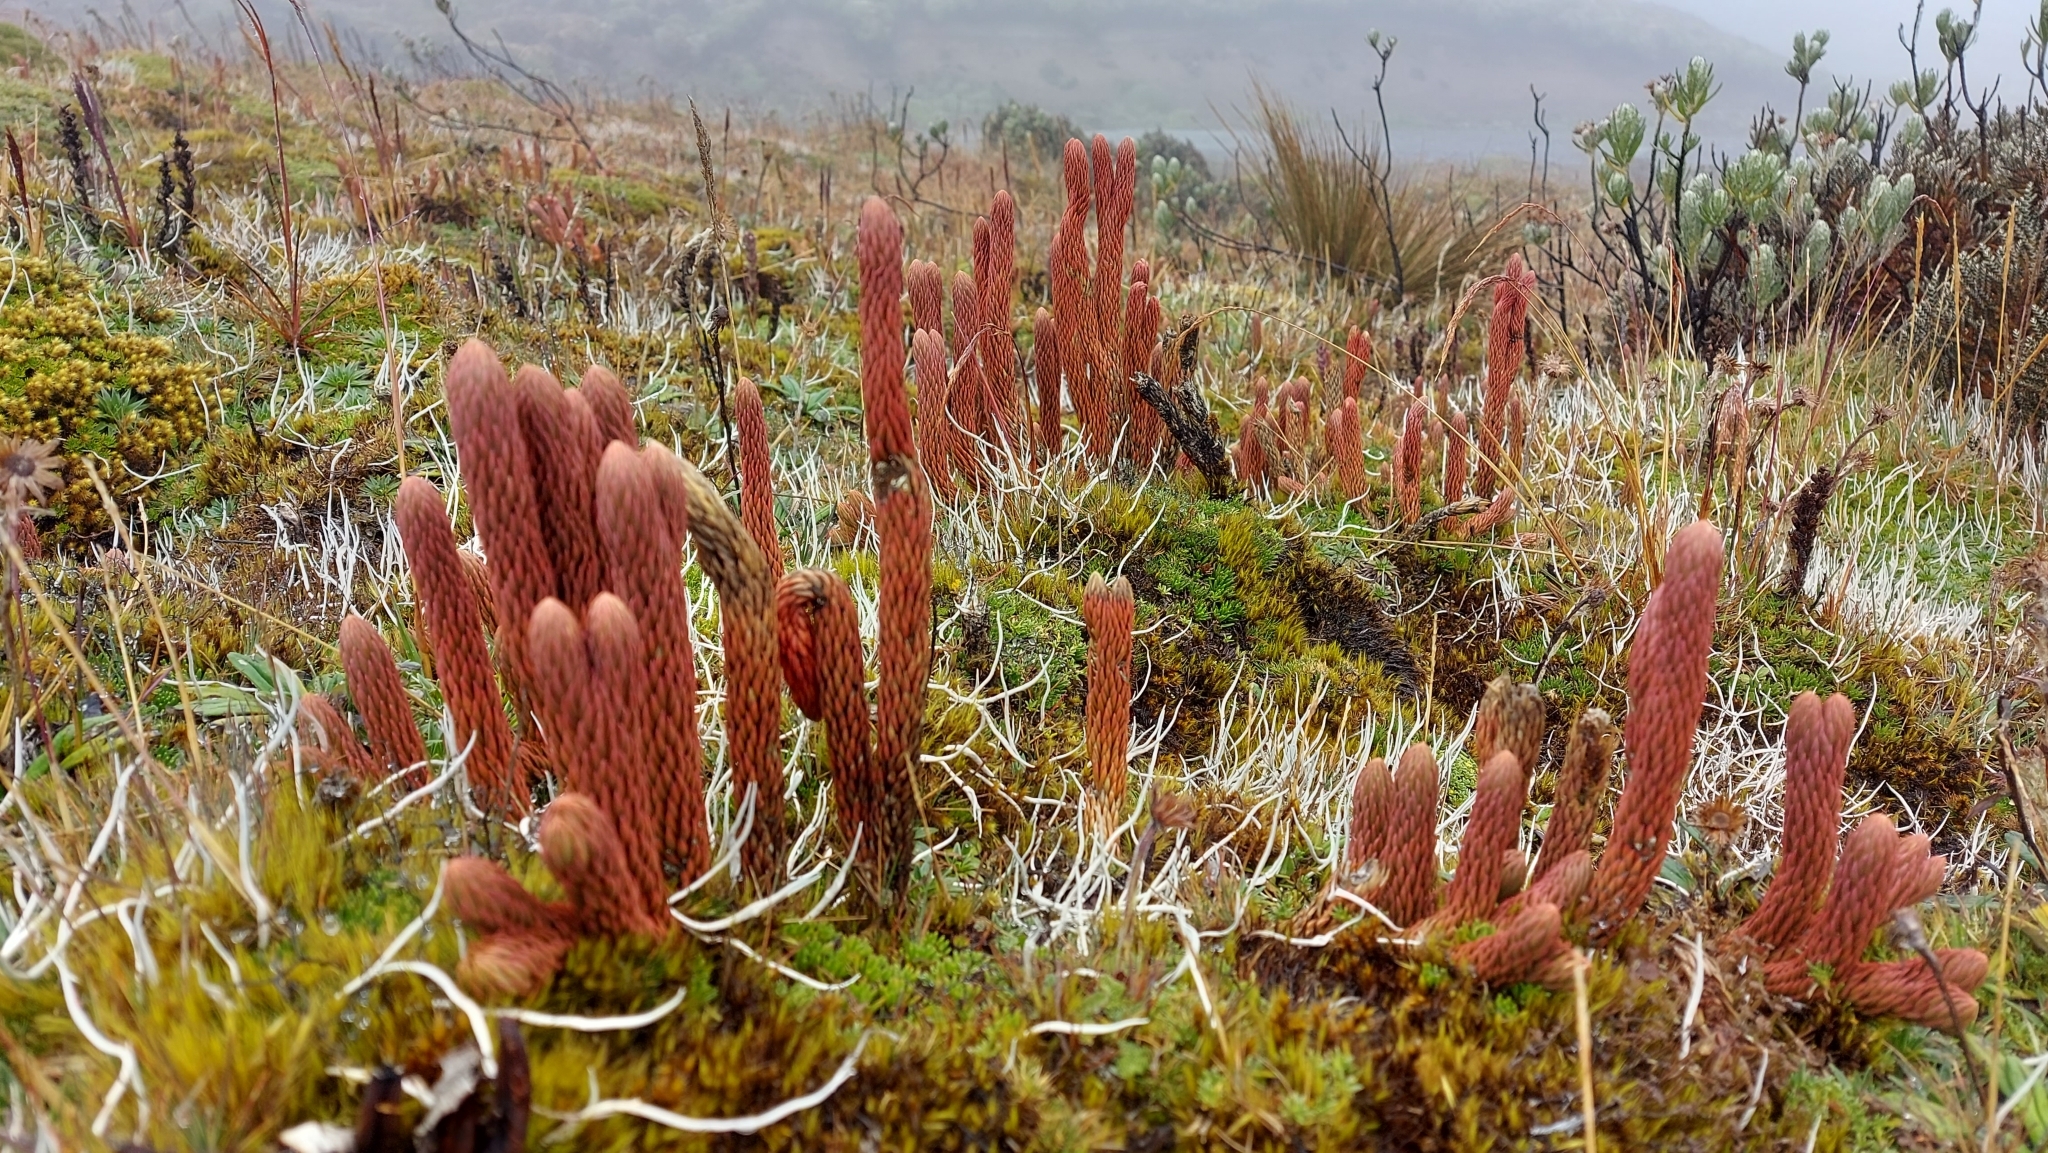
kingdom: Plantae
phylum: Tracheophyta
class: Lycopodiopsida
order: Lycopodiales
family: Lycopodiaceae
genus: Phlegmariurus
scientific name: Phlegmariurus crassus
